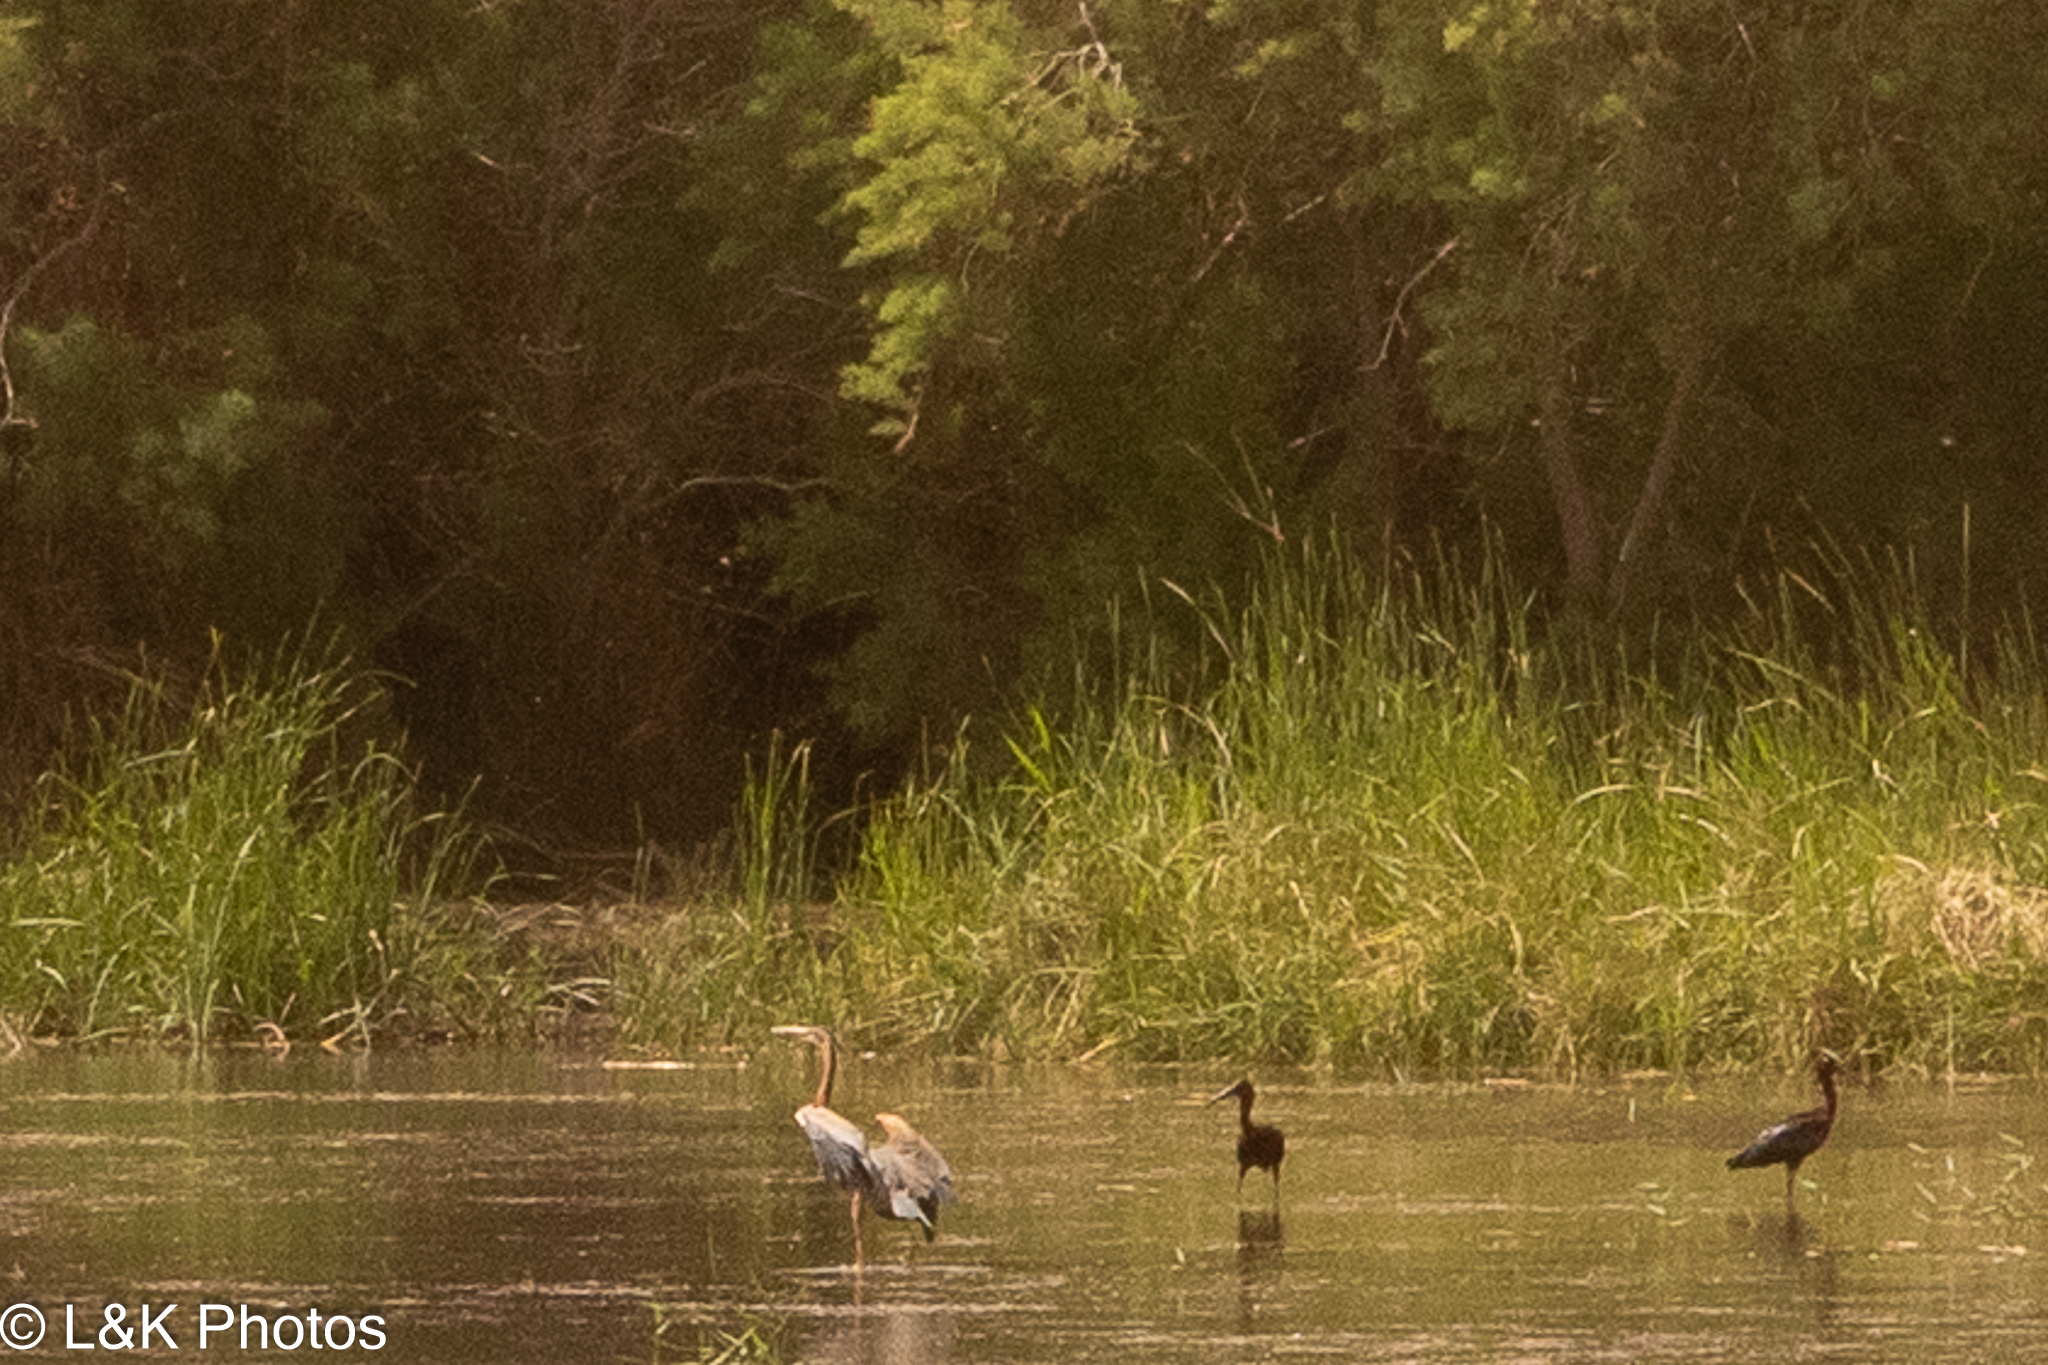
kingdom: Animalia
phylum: Chordata
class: Aves
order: Pelecaniformes
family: Ardeidae
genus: Ardea
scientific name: Ardea purpurea
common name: Purple heron
